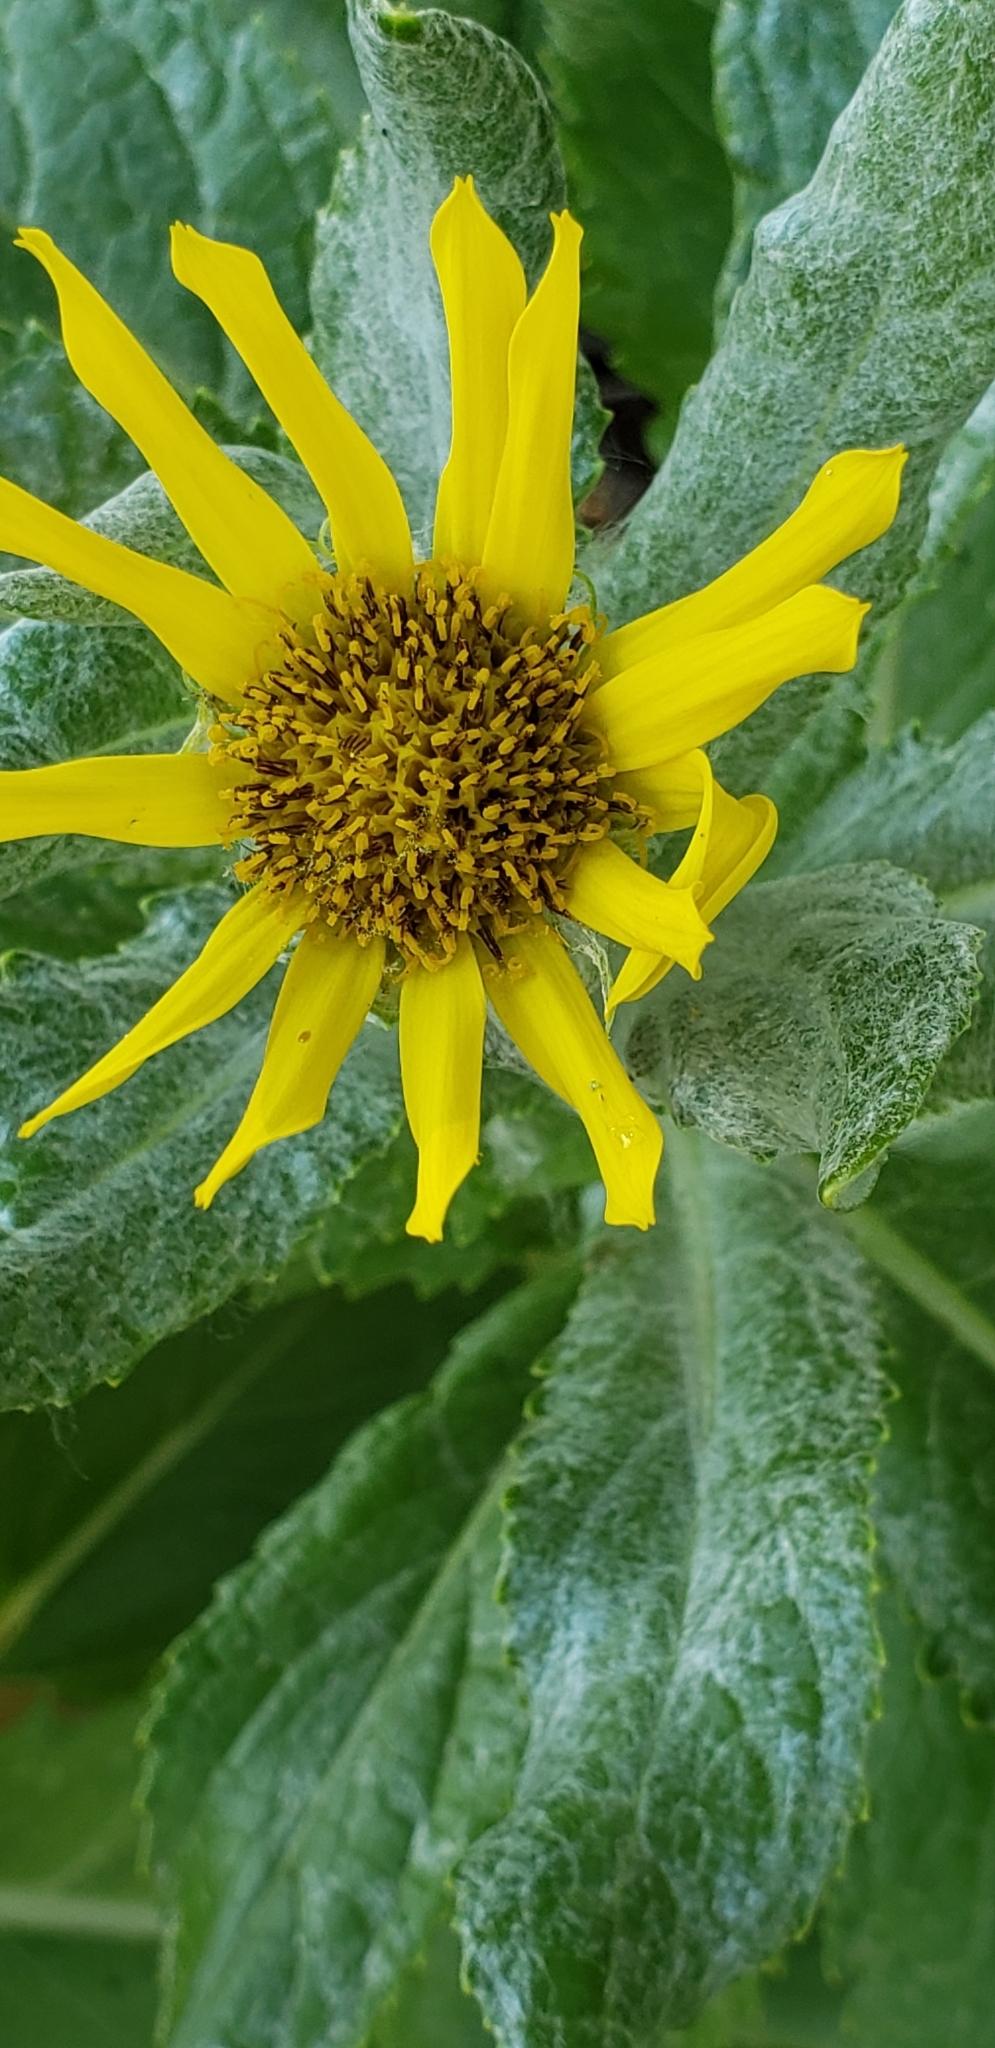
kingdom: Plantae
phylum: Tracheophyta
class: Magnoliopsida
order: Asterales
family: Asteraceae
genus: Jacobaea
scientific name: Jacobaea pseudoarnica
